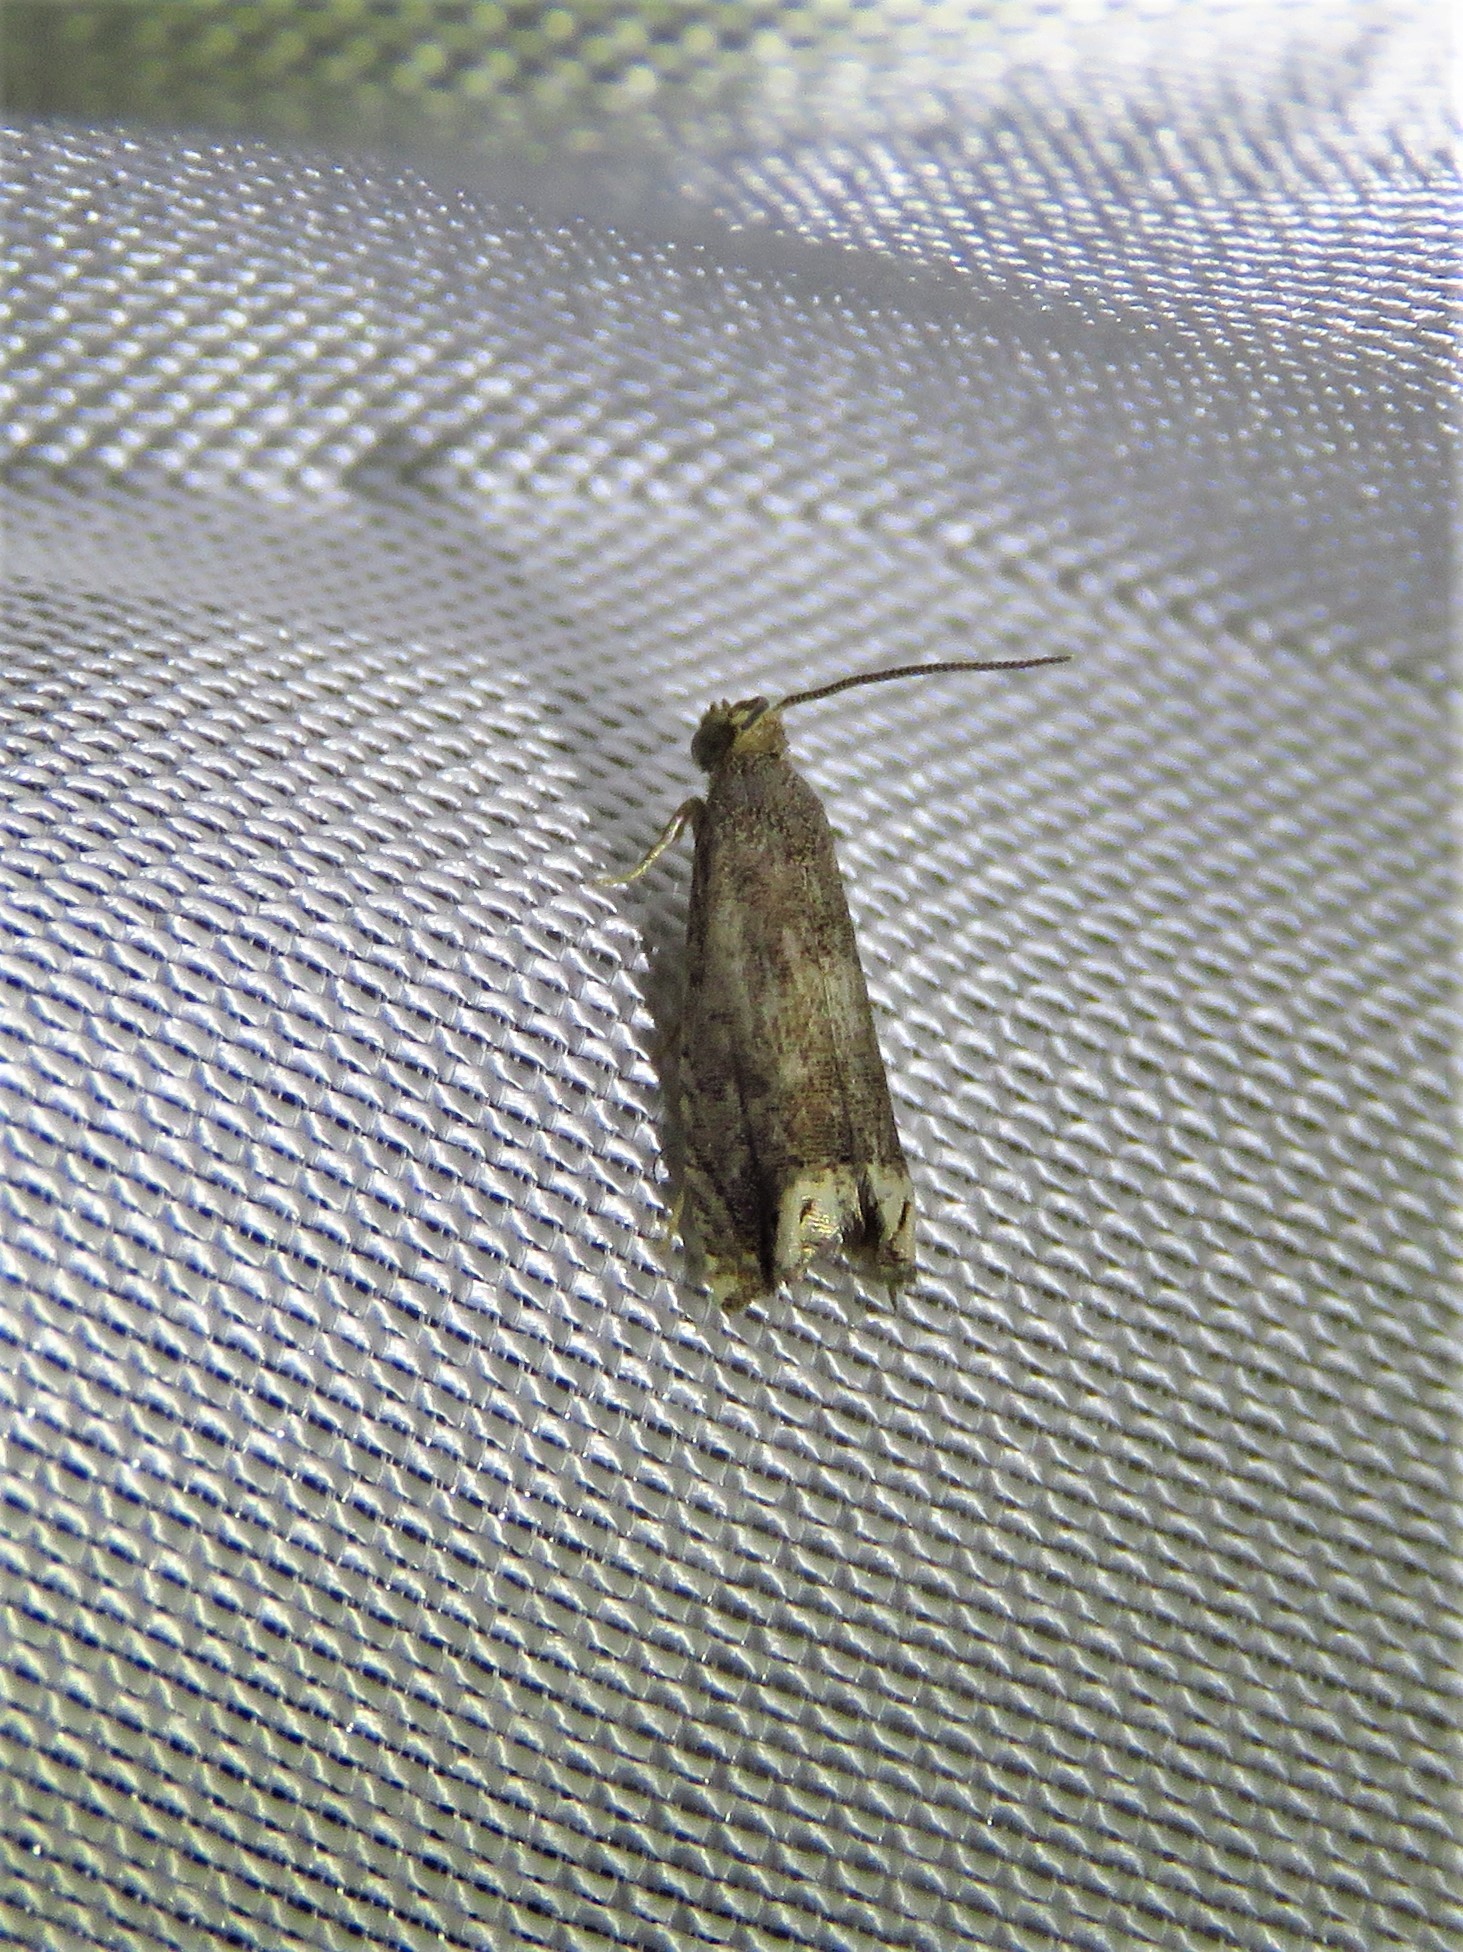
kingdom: Animalia
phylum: Arthropoda
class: Insecta
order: Lepidoptera
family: Tortricidae
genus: Epiblema
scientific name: Epiblema strenuana
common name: Ragweed borer moth
